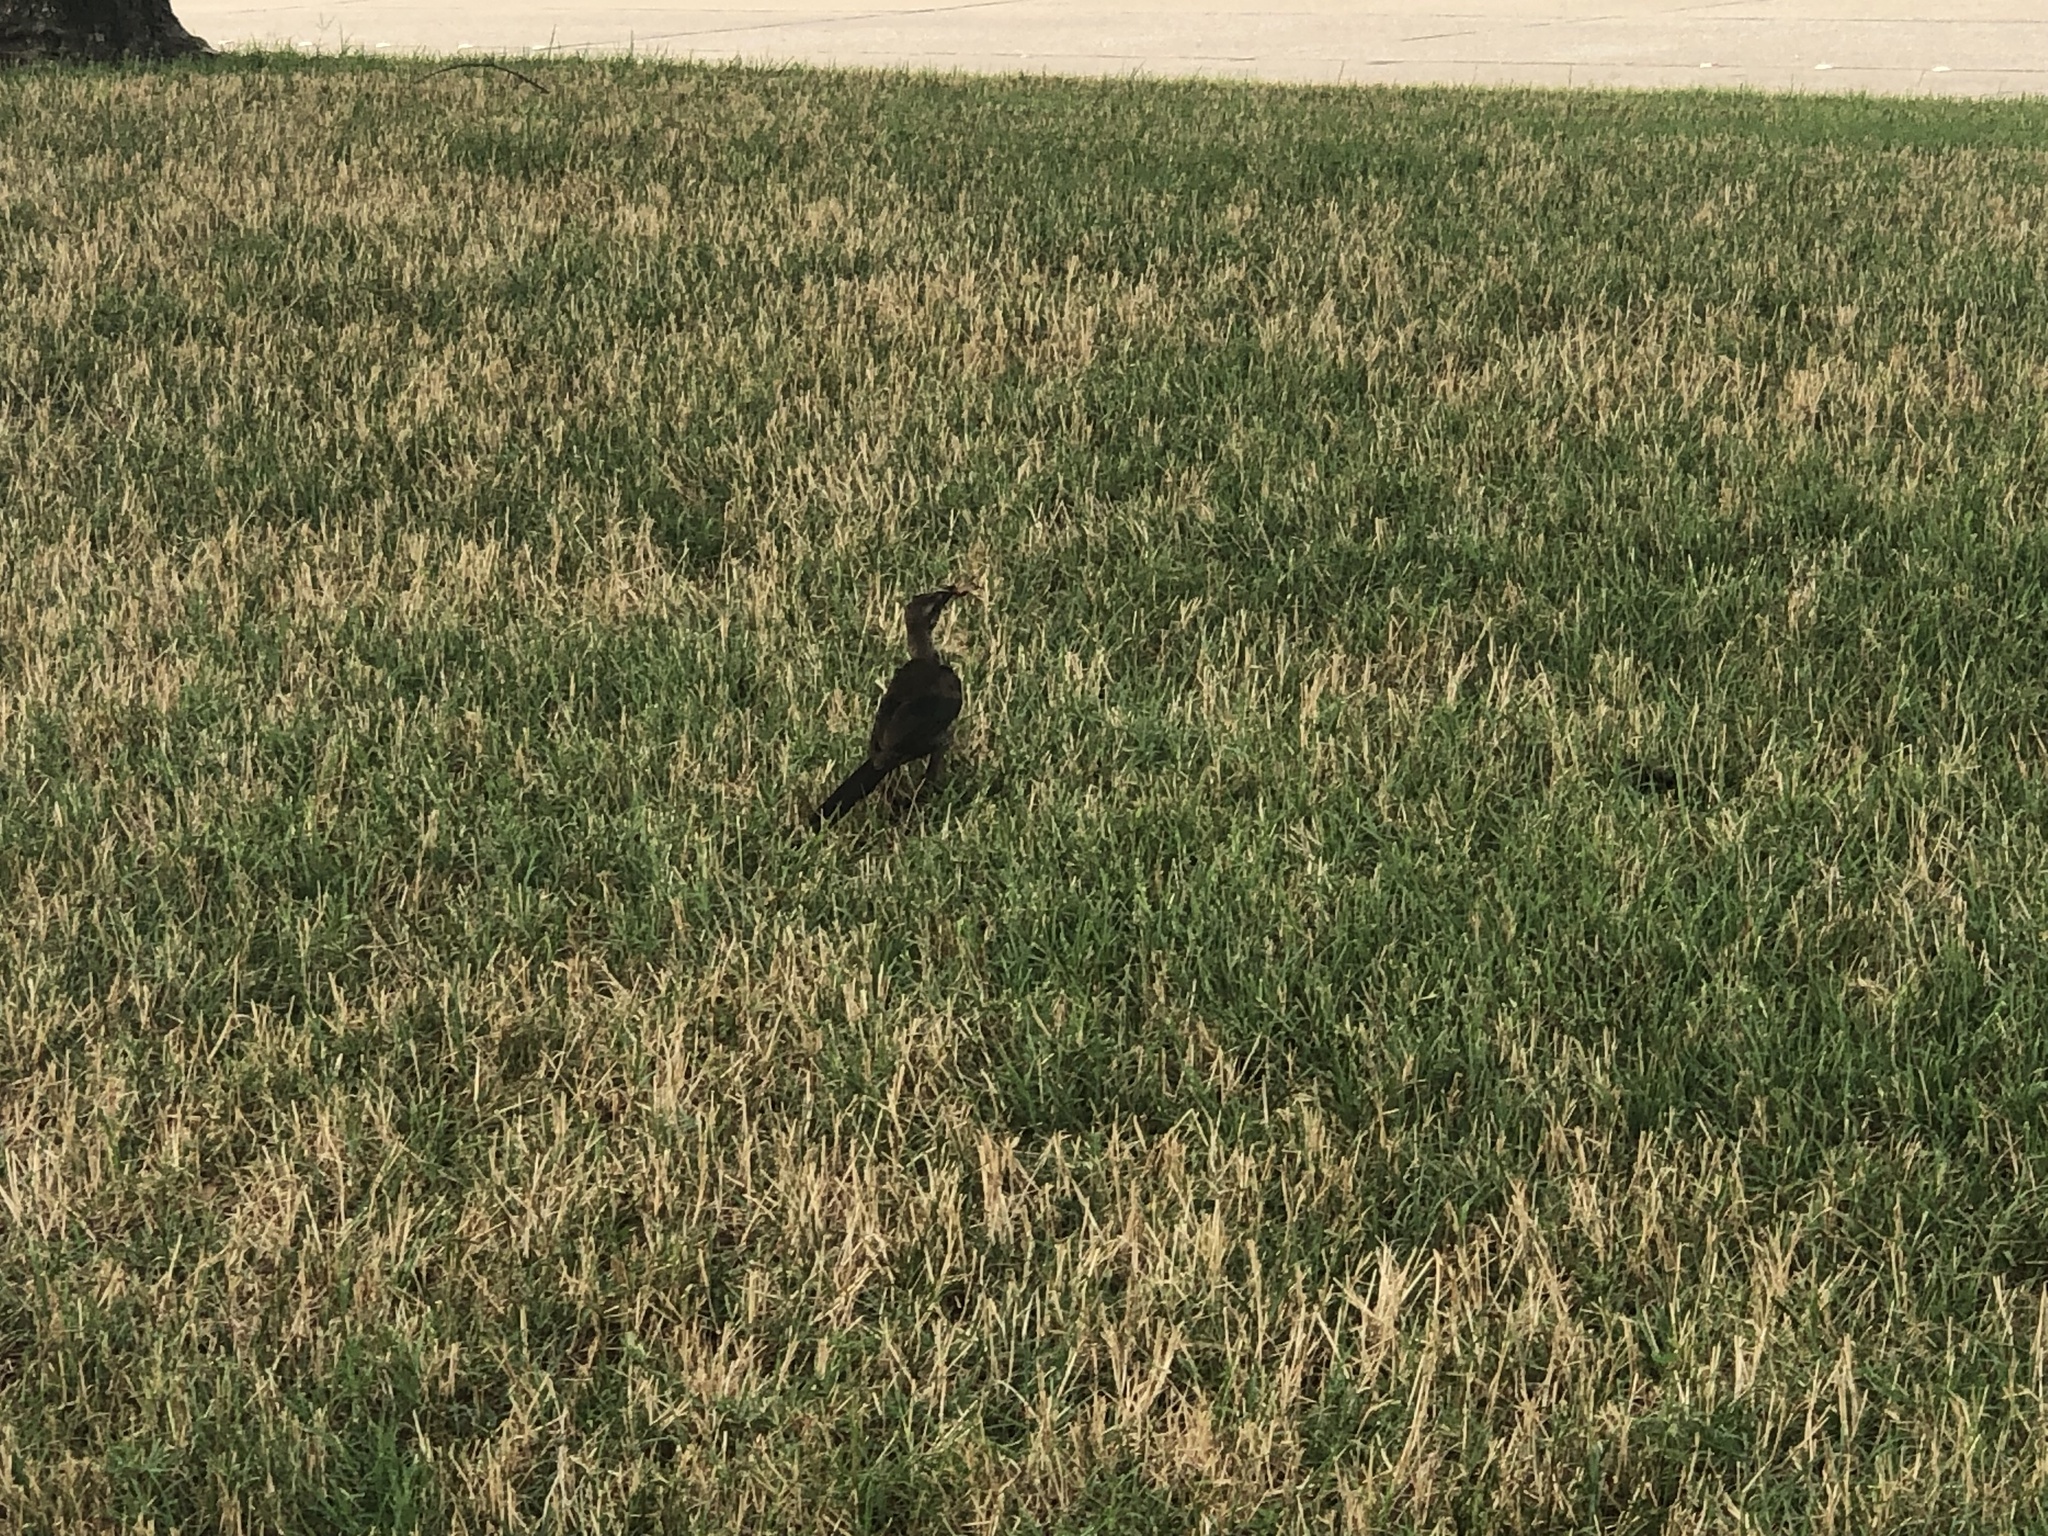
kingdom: Animalia
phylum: Chordata
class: Aves
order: Passeriformes
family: Icteridae
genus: Quiscalus
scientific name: Quiscalus mexicanus
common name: Great-tailed grackle
